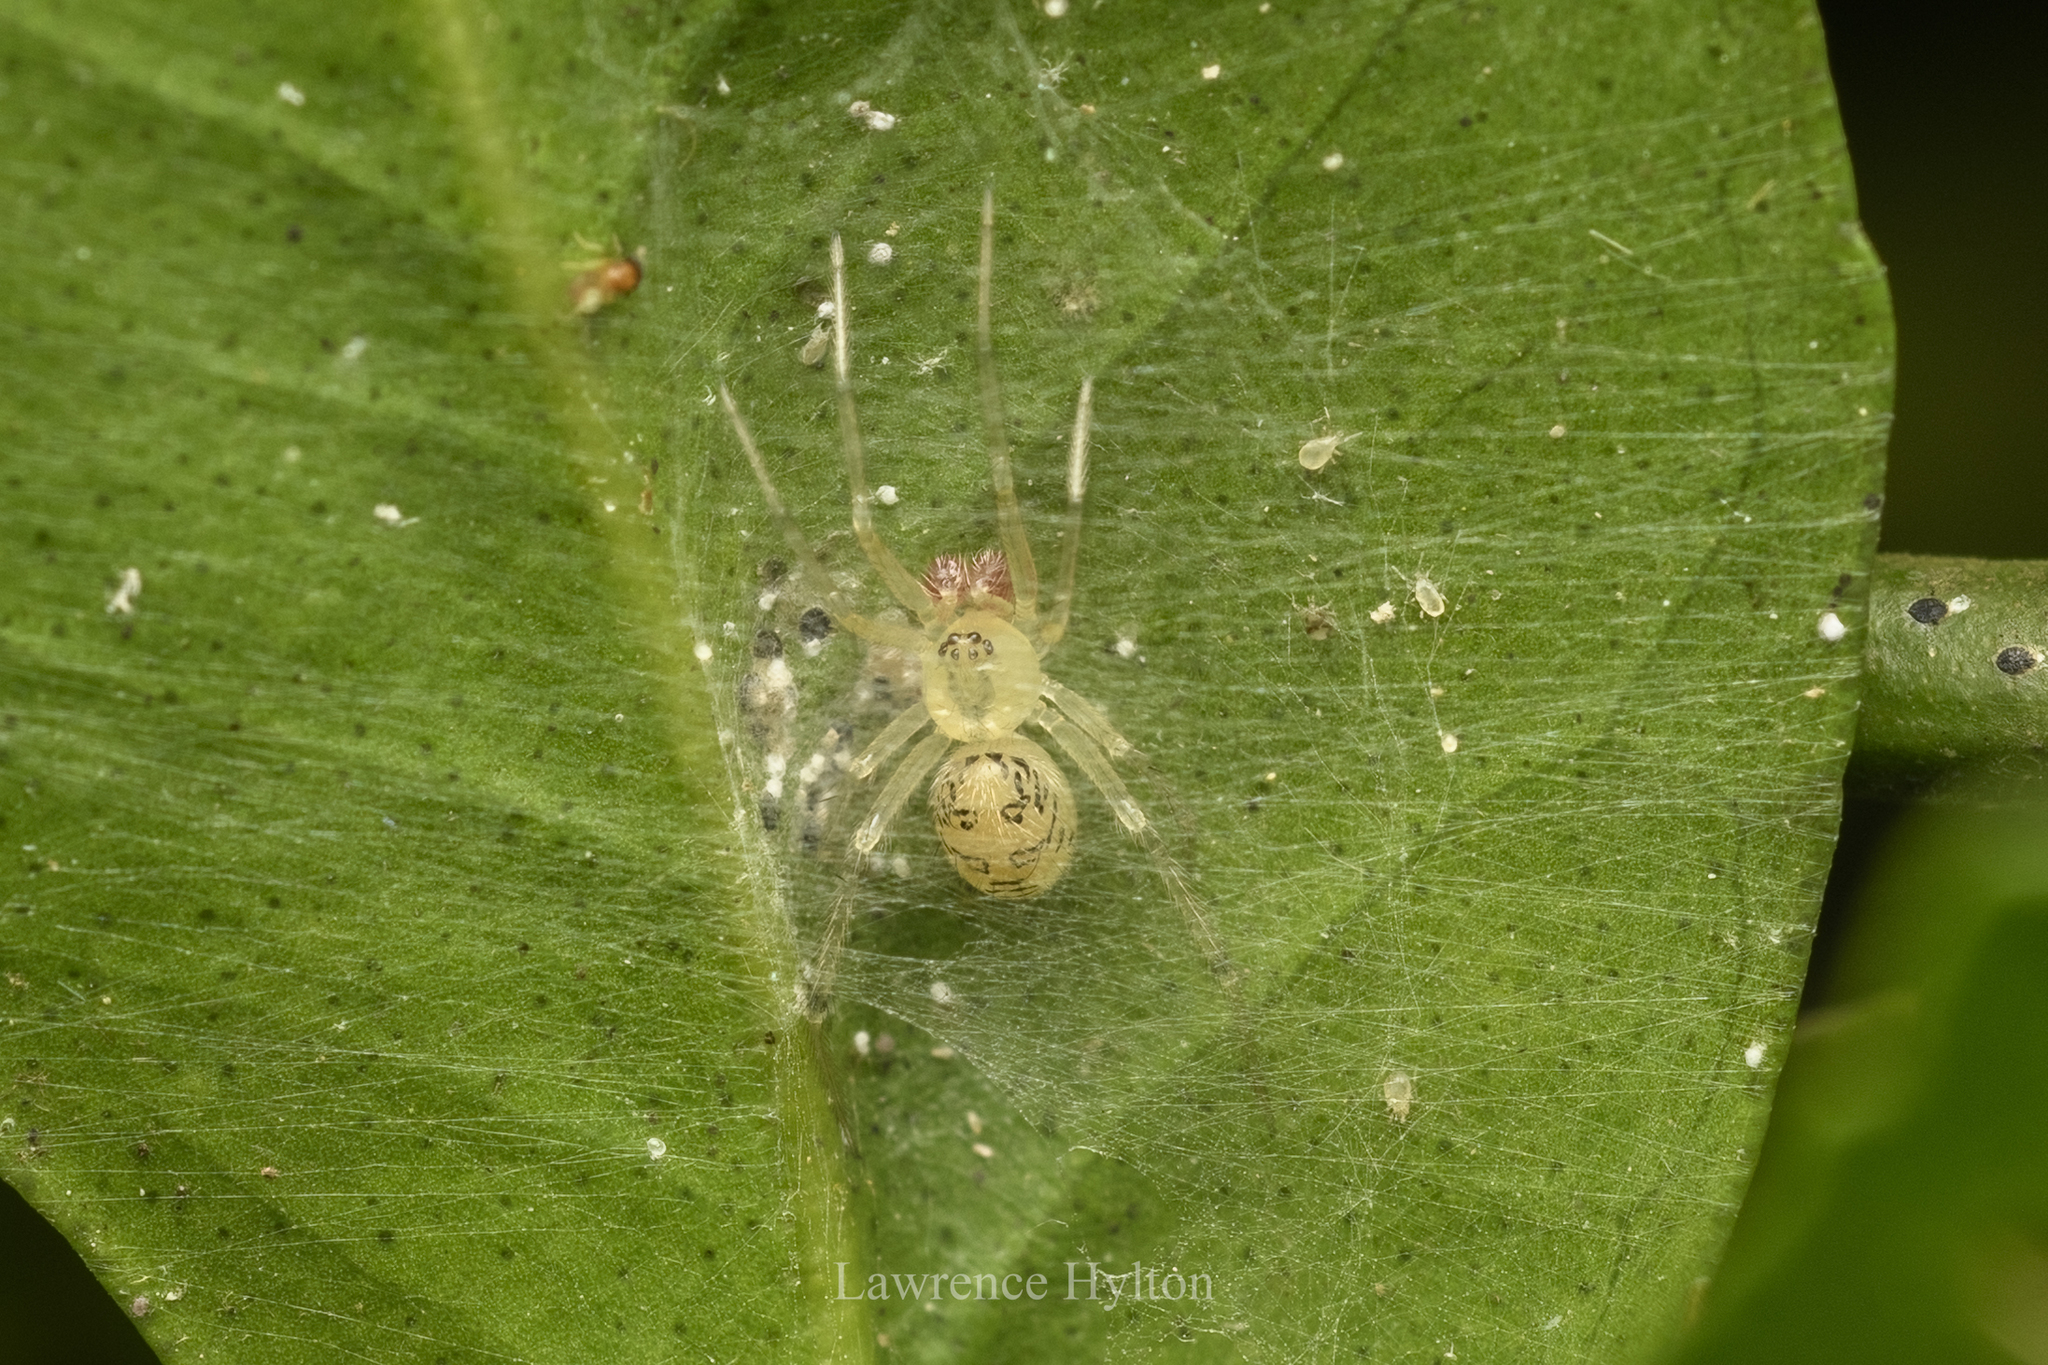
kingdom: Animalia
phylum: Arthropoda
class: Arachnida
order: Araneae
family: Theridiidae
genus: Phycosoma
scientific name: Phycosoma digitula
